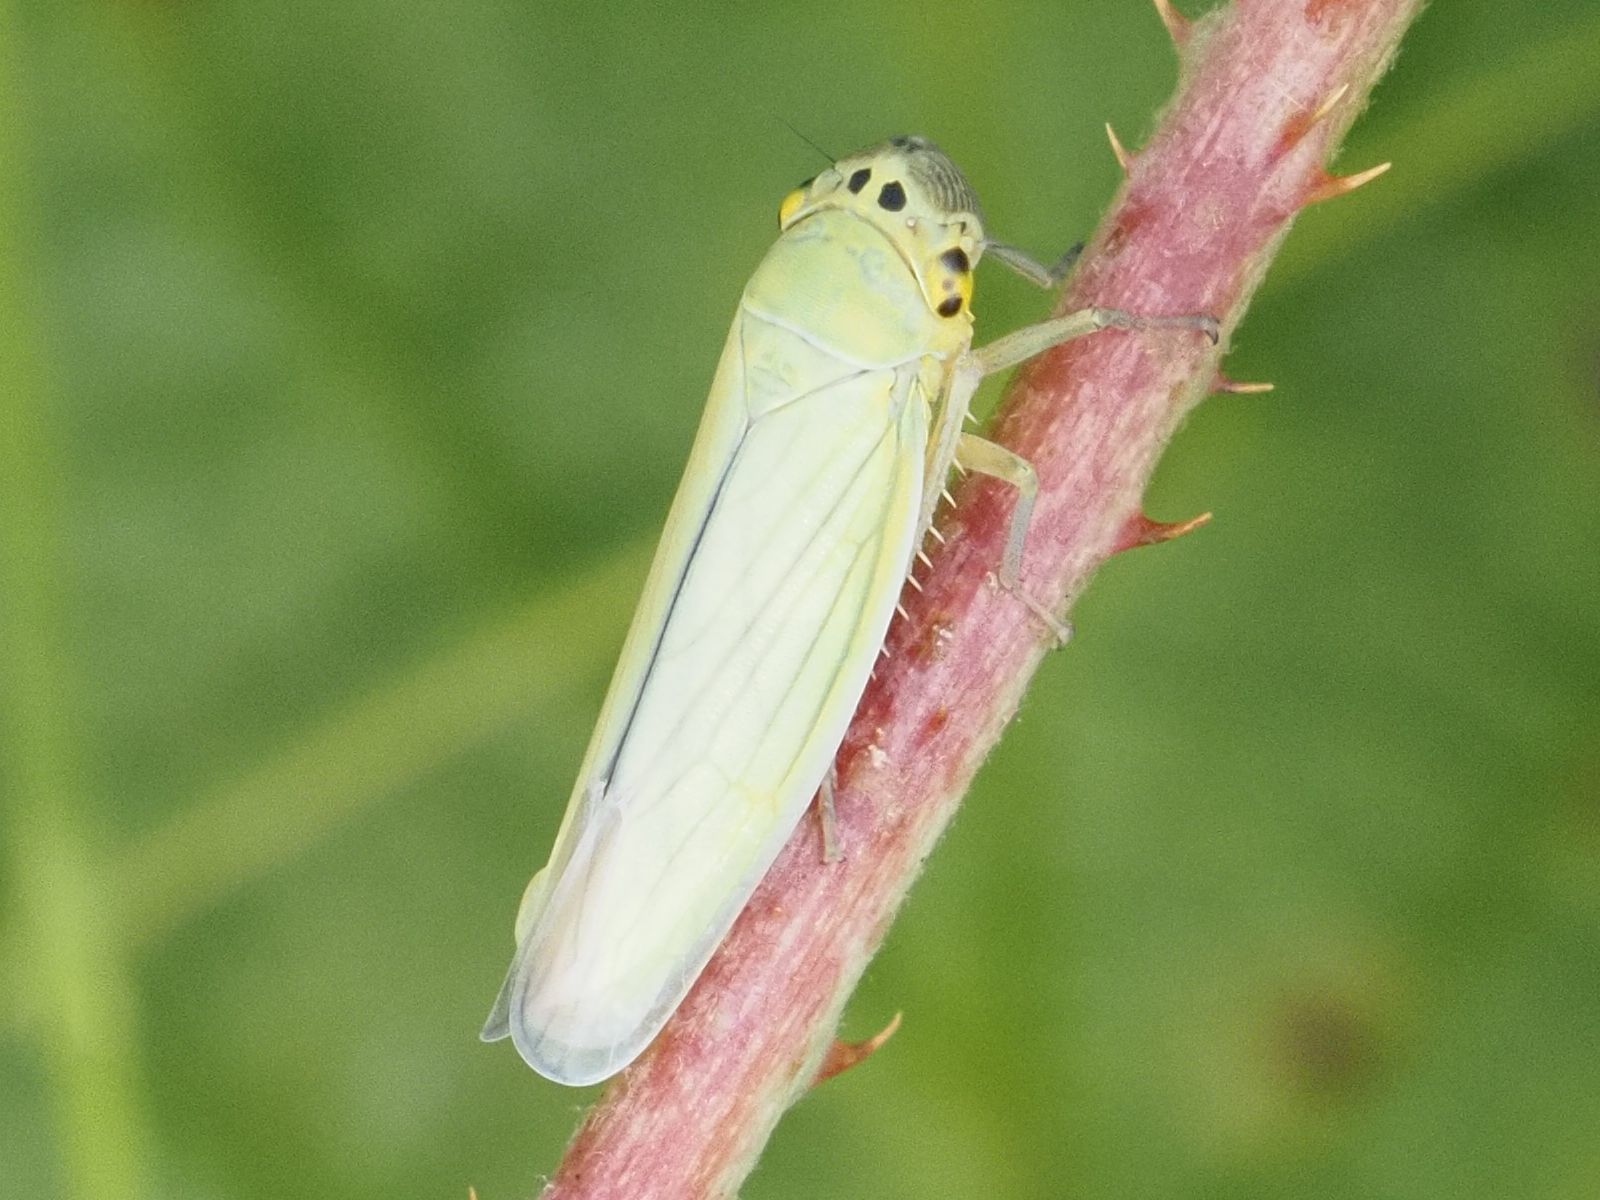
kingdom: Animalia
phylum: Arthropoda
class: Insecta
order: Hemiptera
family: Cicadellidae
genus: Cicadella
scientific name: Cicadella viridis
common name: Leafhopper
